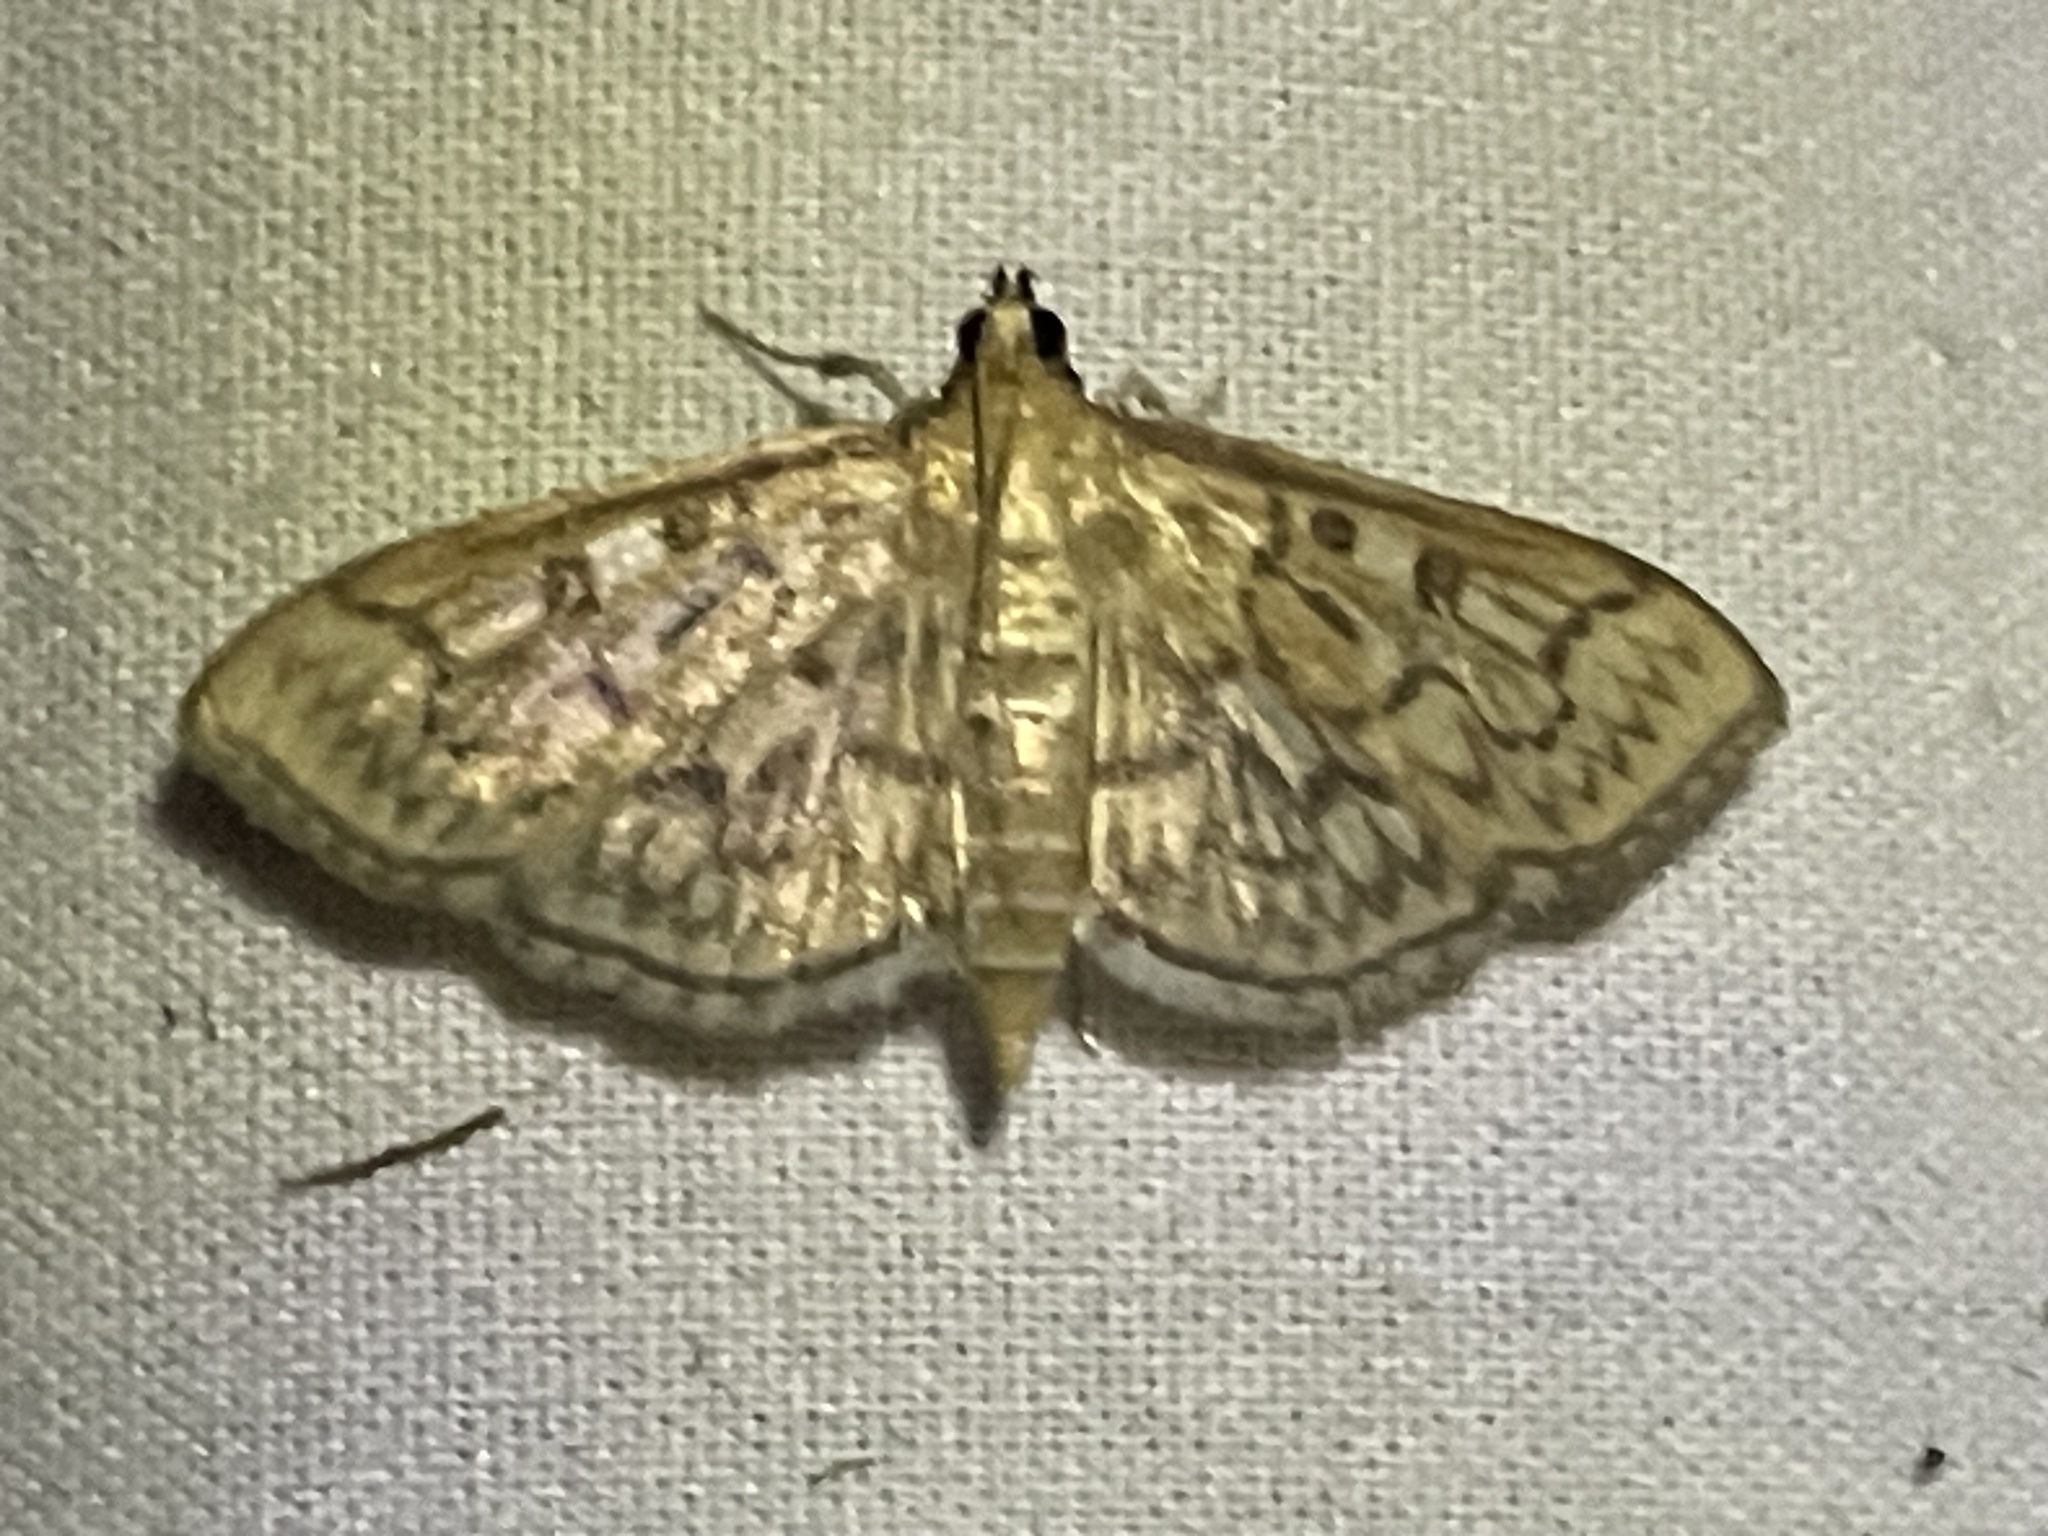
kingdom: Animalia
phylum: Arthropoda
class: Insecta
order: Lepidoptera
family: Crambidae
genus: Herpetogramma
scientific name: Herpetogramma pertextalis
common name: Bold-feathered grass moth
